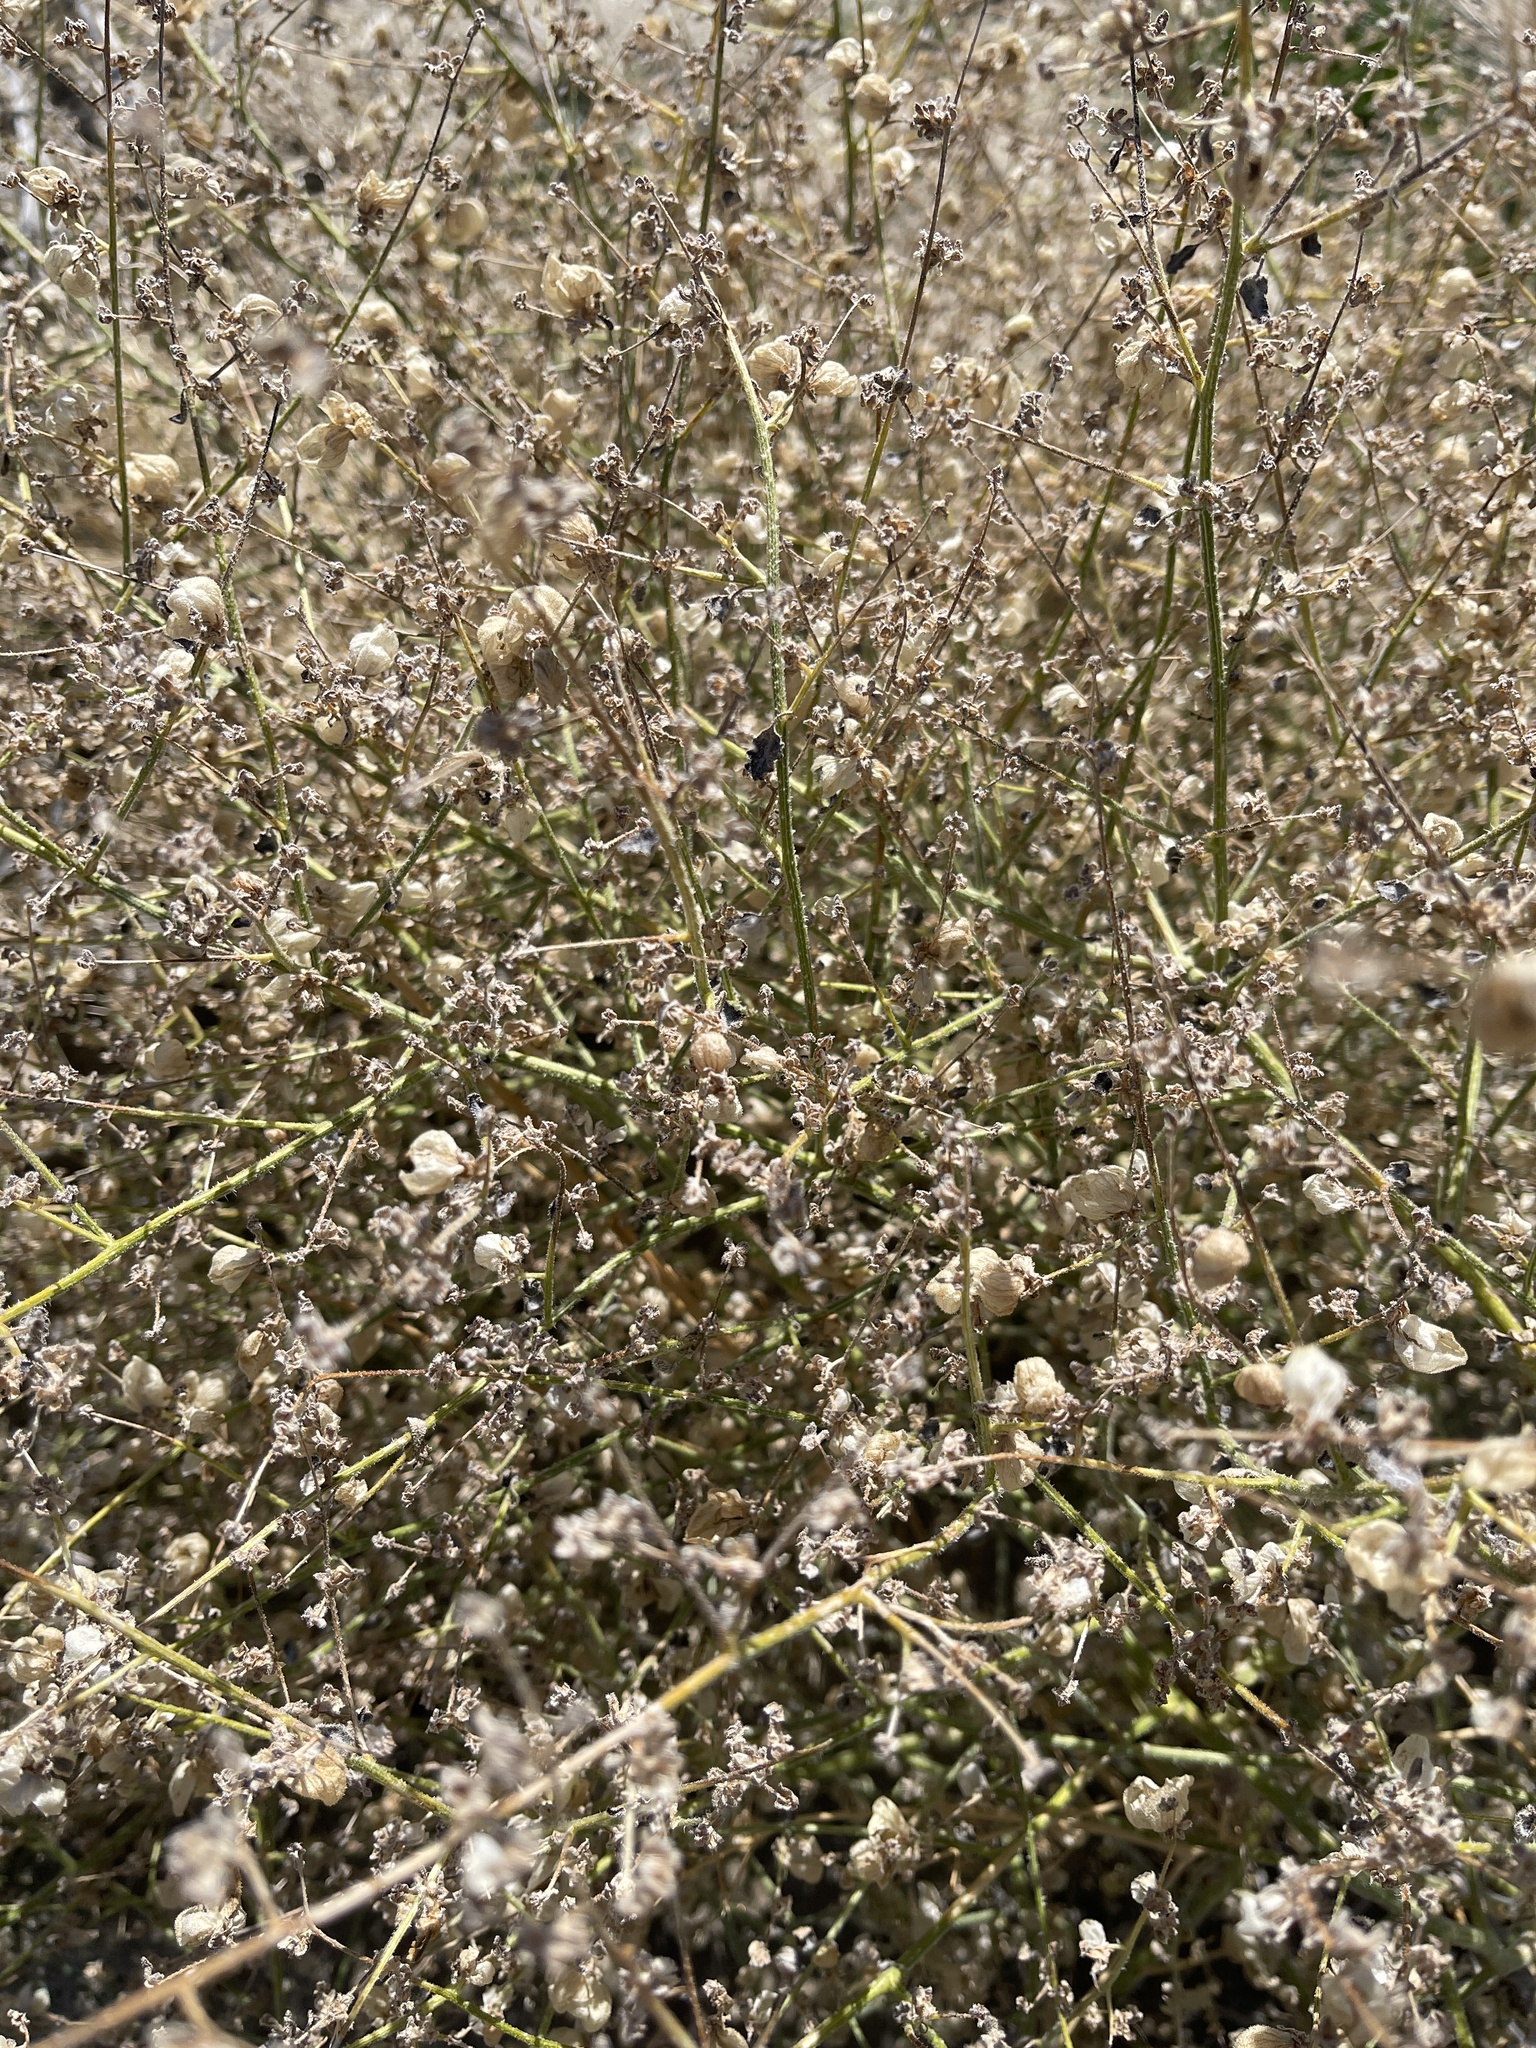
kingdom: Plantae
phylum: Tracheophyta
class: Magnoliopsida
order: Asterales
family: Asteraceae
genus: Dicoria
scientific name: Dicoria canescens
